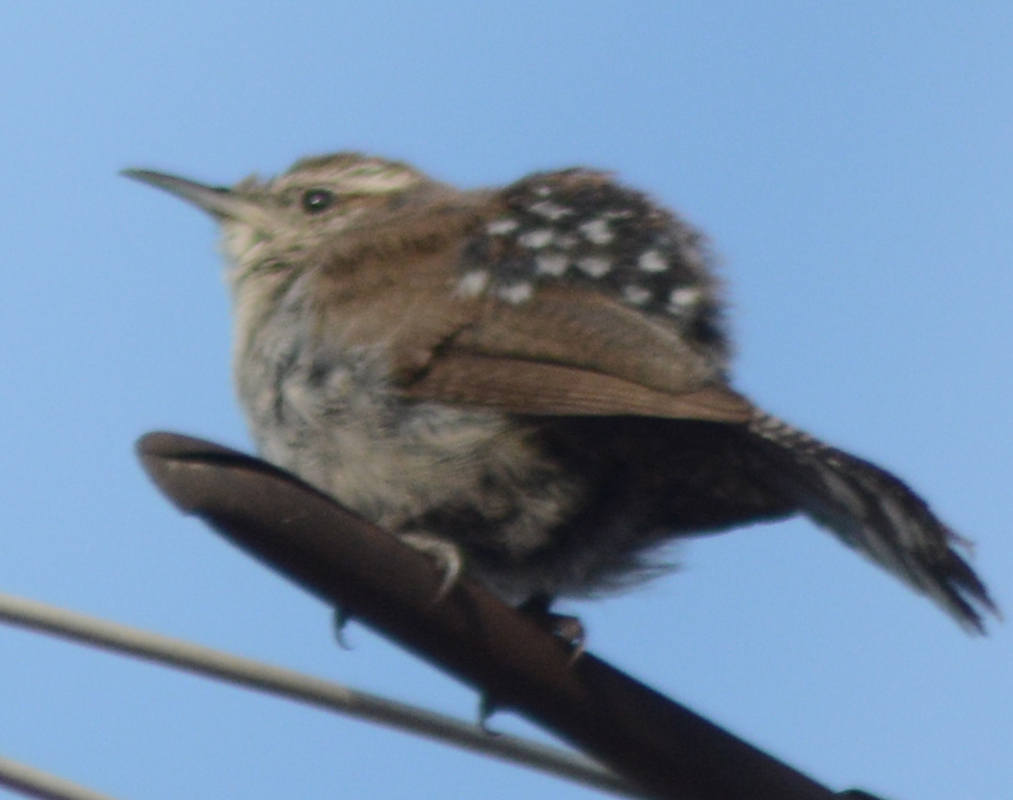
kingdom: Animalia
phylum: Chordata
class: Aves
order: Passeriformes
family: Troglodytidae
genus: Thryomanes
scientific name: Thryomanes bewickii
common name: Bewick's wren
